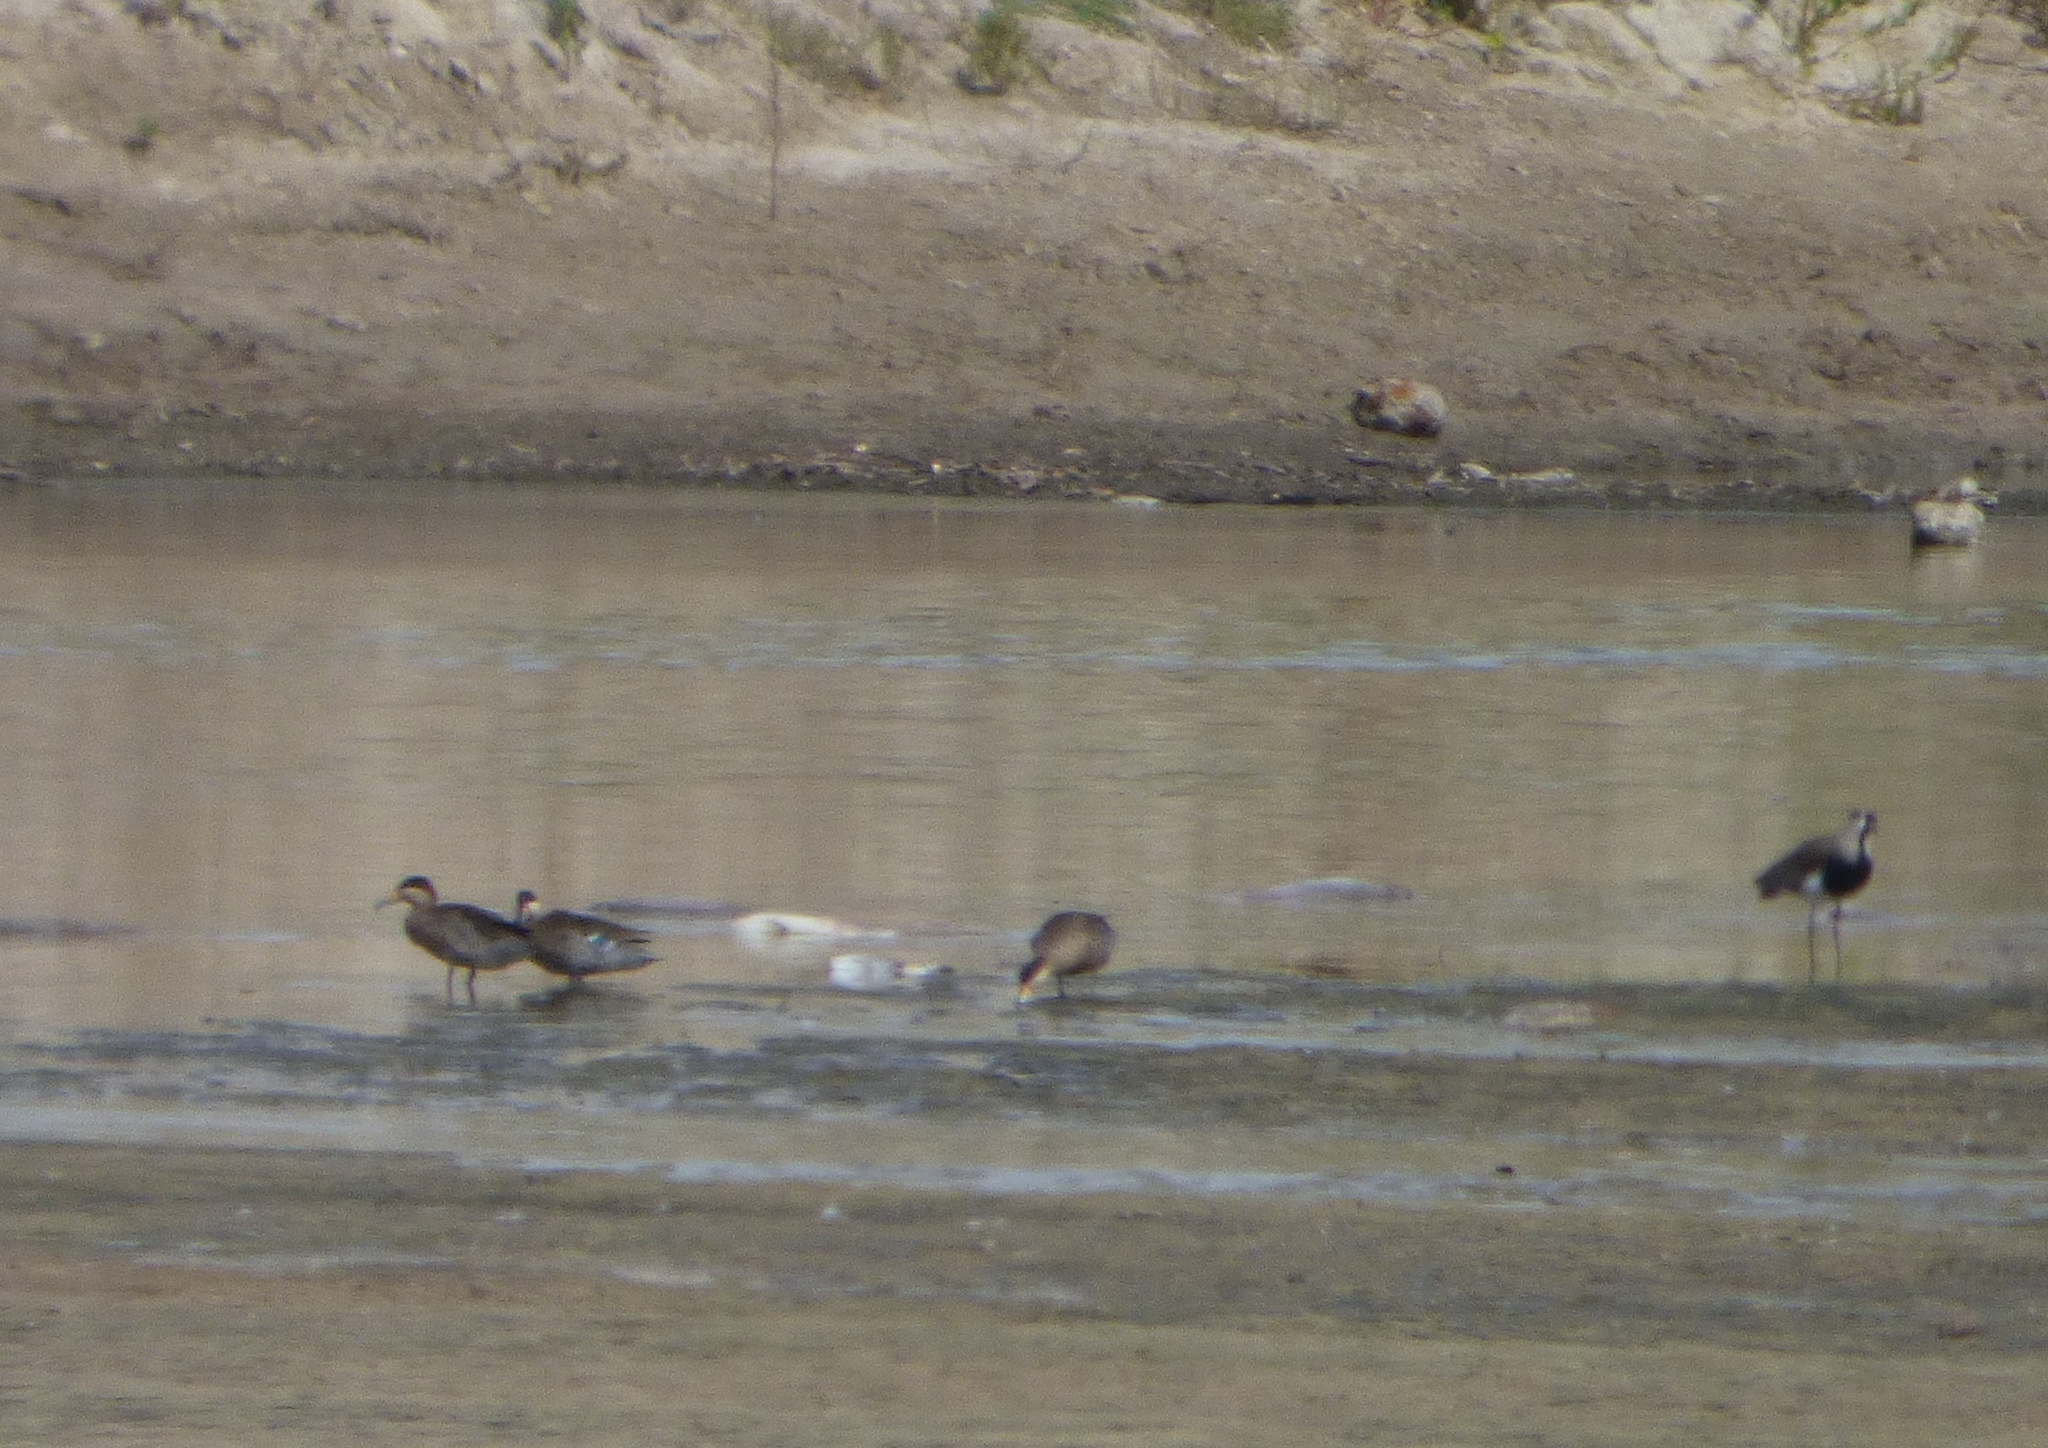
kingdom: Animalia
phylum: Chordata
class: Aves
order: Anseriformes
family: Anatidae
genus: Spatula
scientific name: Spatula versicolor
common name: Silver teal
